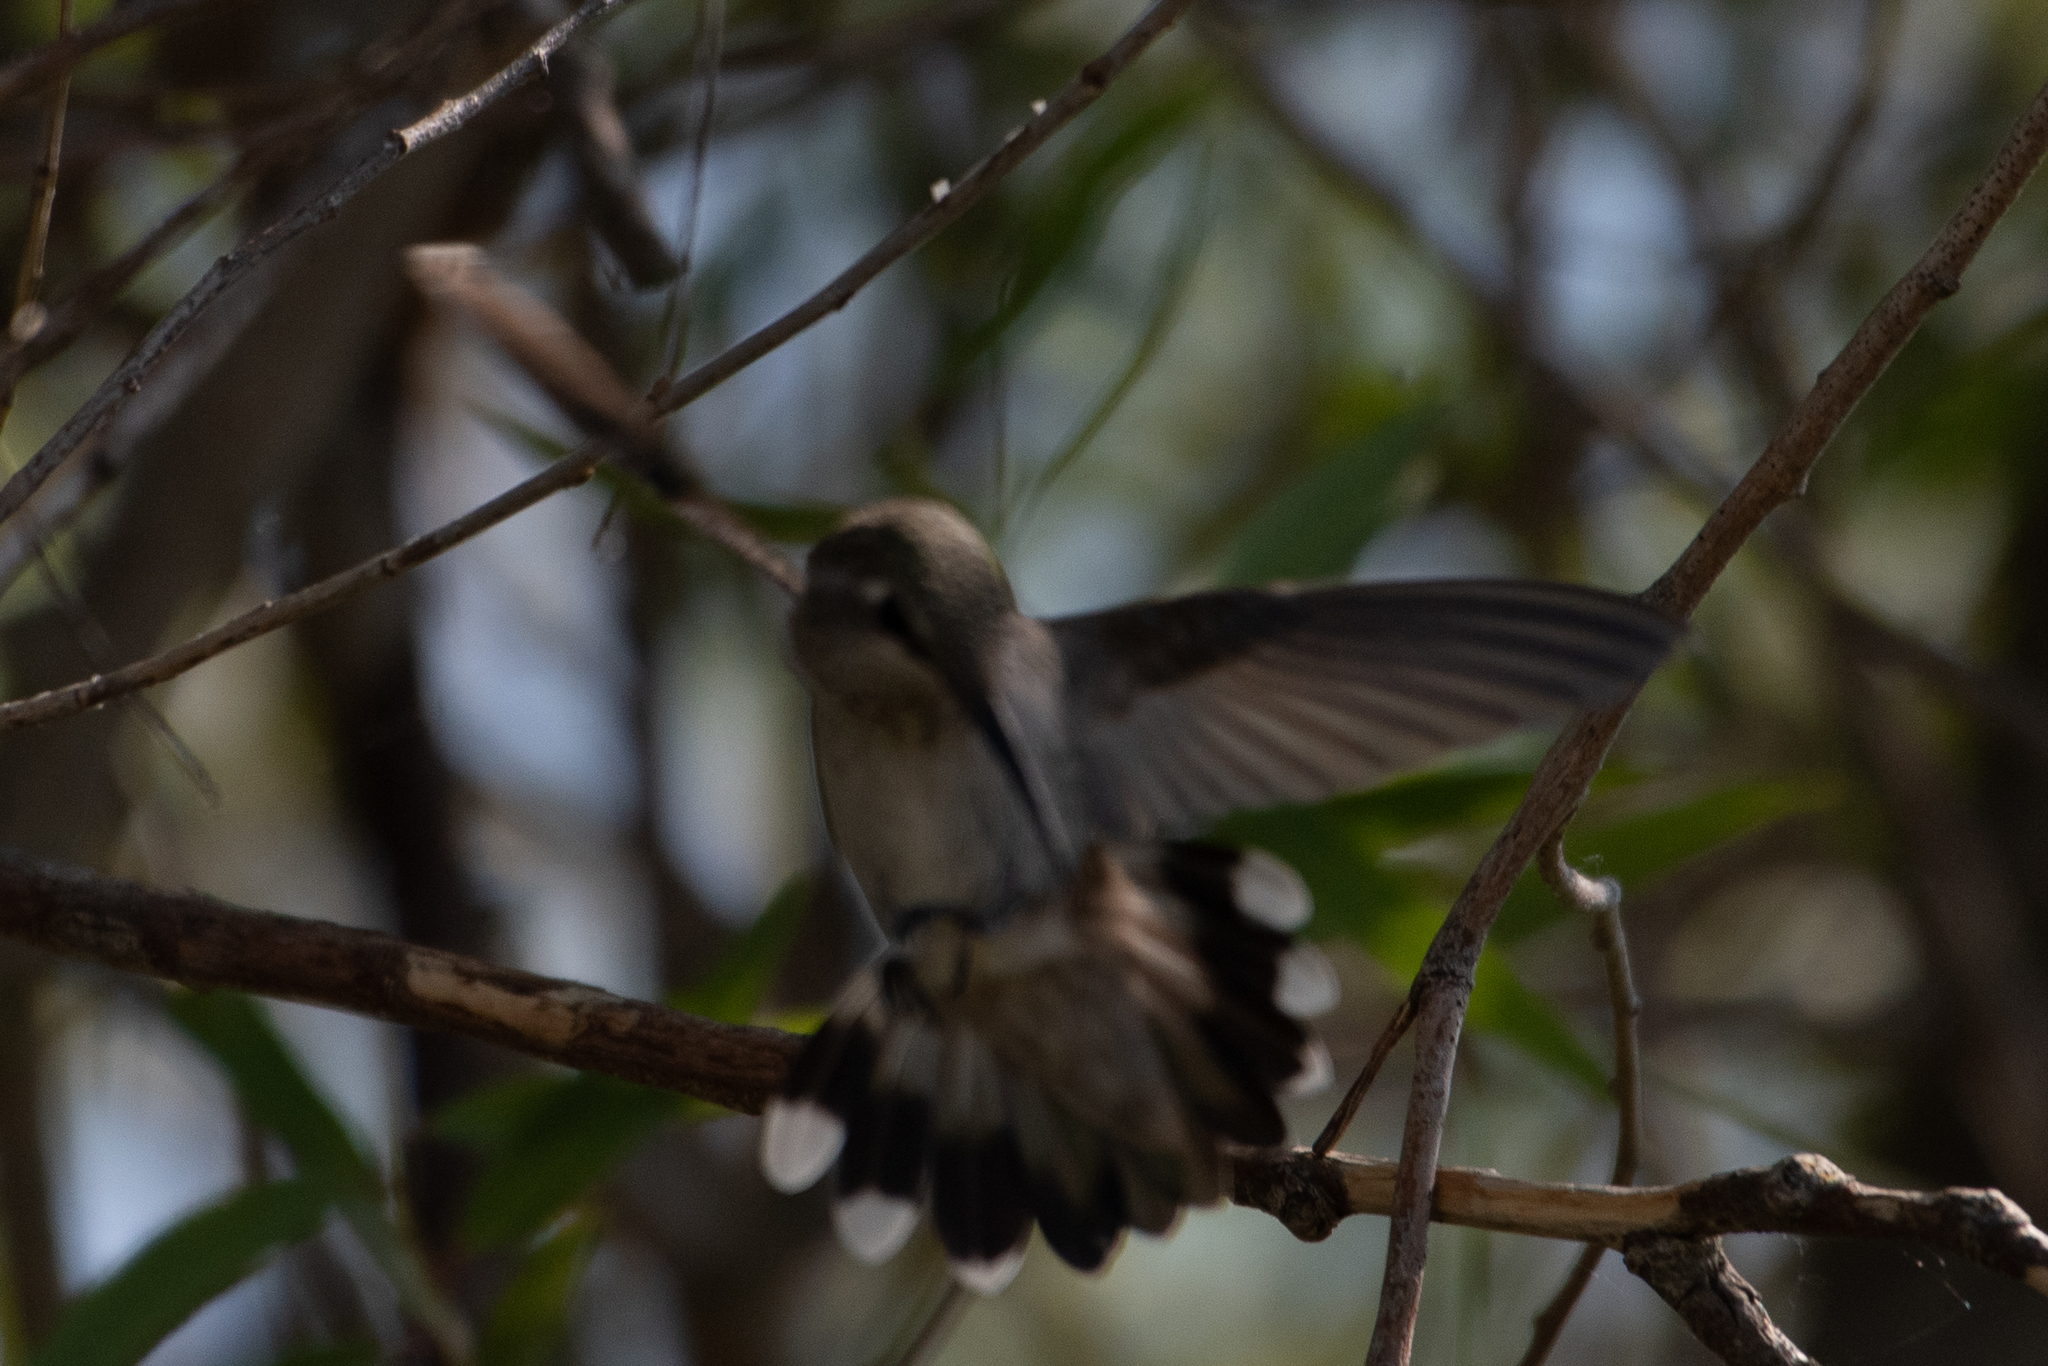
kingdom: Animalia
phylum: Chordata
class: Aves
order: Apodiformes
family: Trochilidae
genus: Calypte
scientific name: Calypte anna
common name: Anna's hummingbird
